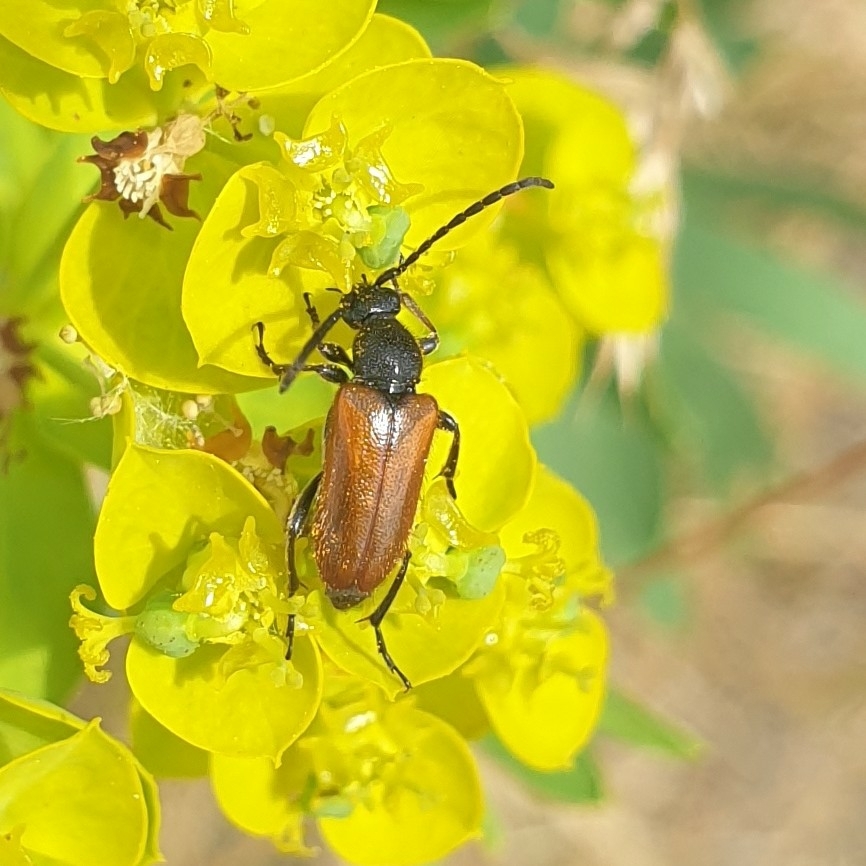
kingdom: Animalia
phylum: Arthropoda
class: Insecta
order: Coleoptera
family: Cerambycidae
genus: Pseudovadonia
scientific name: Pseudovadonia livida
